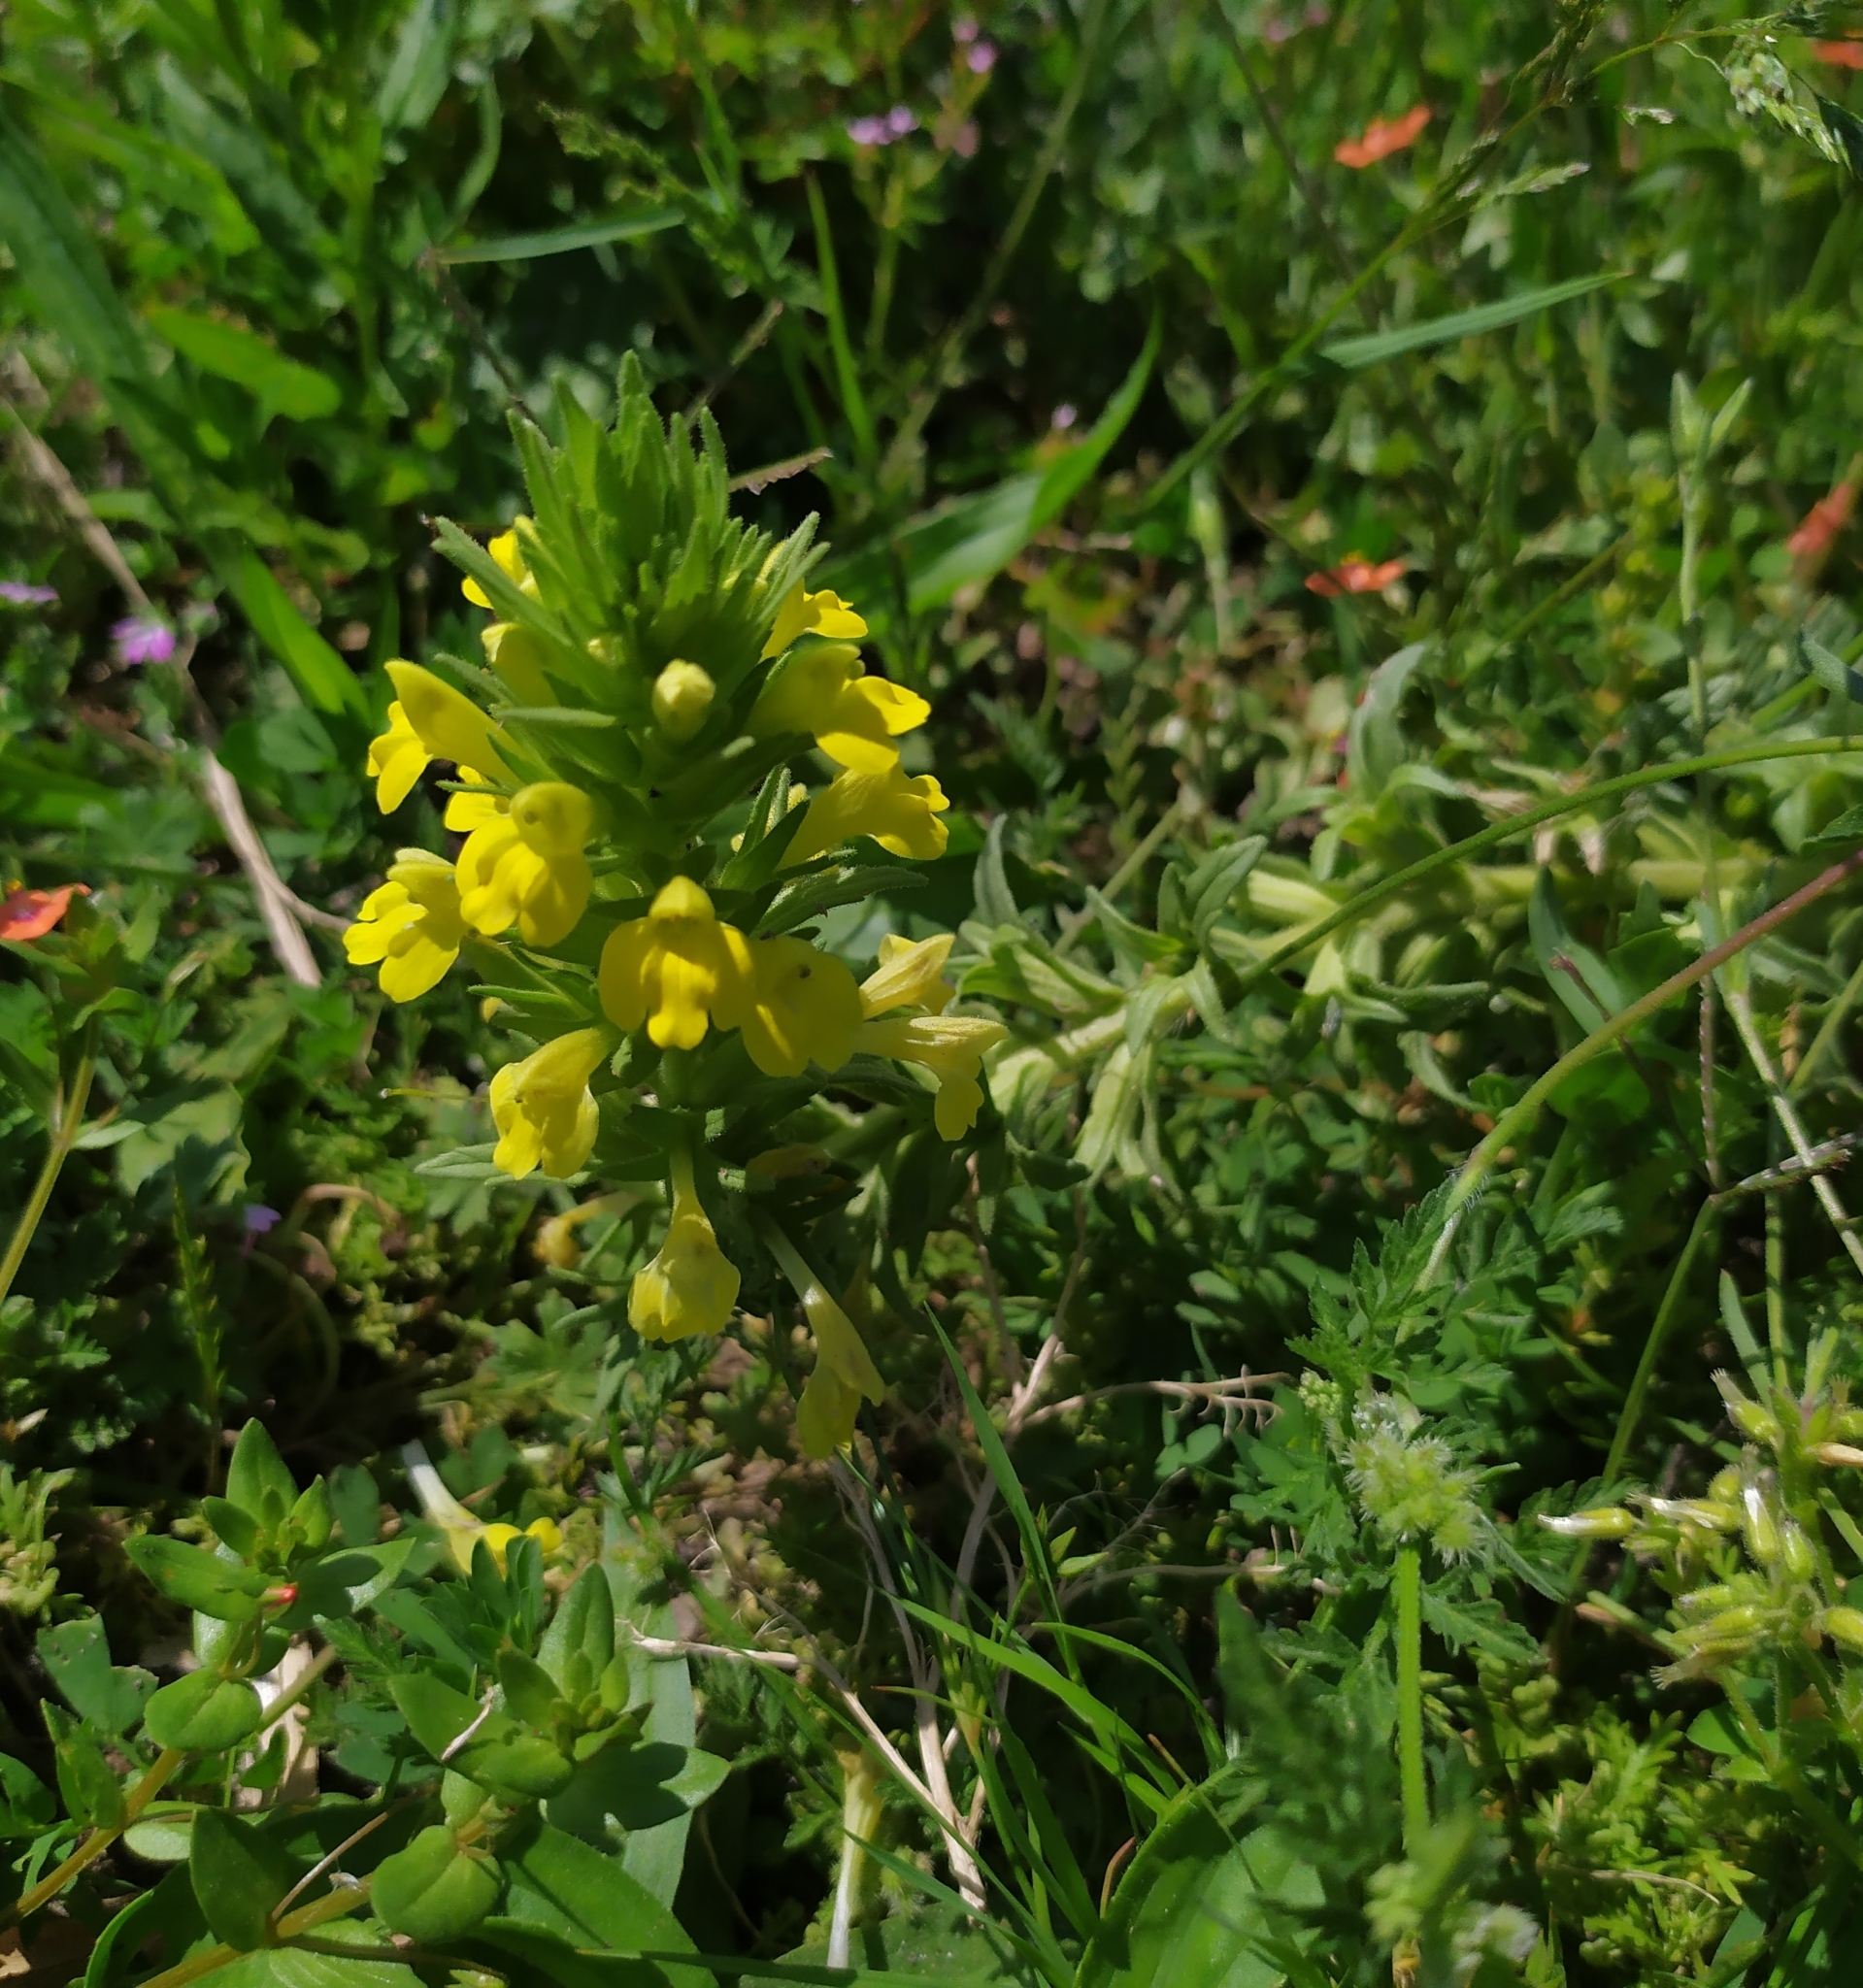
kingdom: Plantae
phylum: Tracheophyta
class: Magnoliopsida
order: Lamiales
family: Orobanchaceae
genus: Bellardia
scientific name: Bellardia viscosa
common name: Sticky parentucellia
